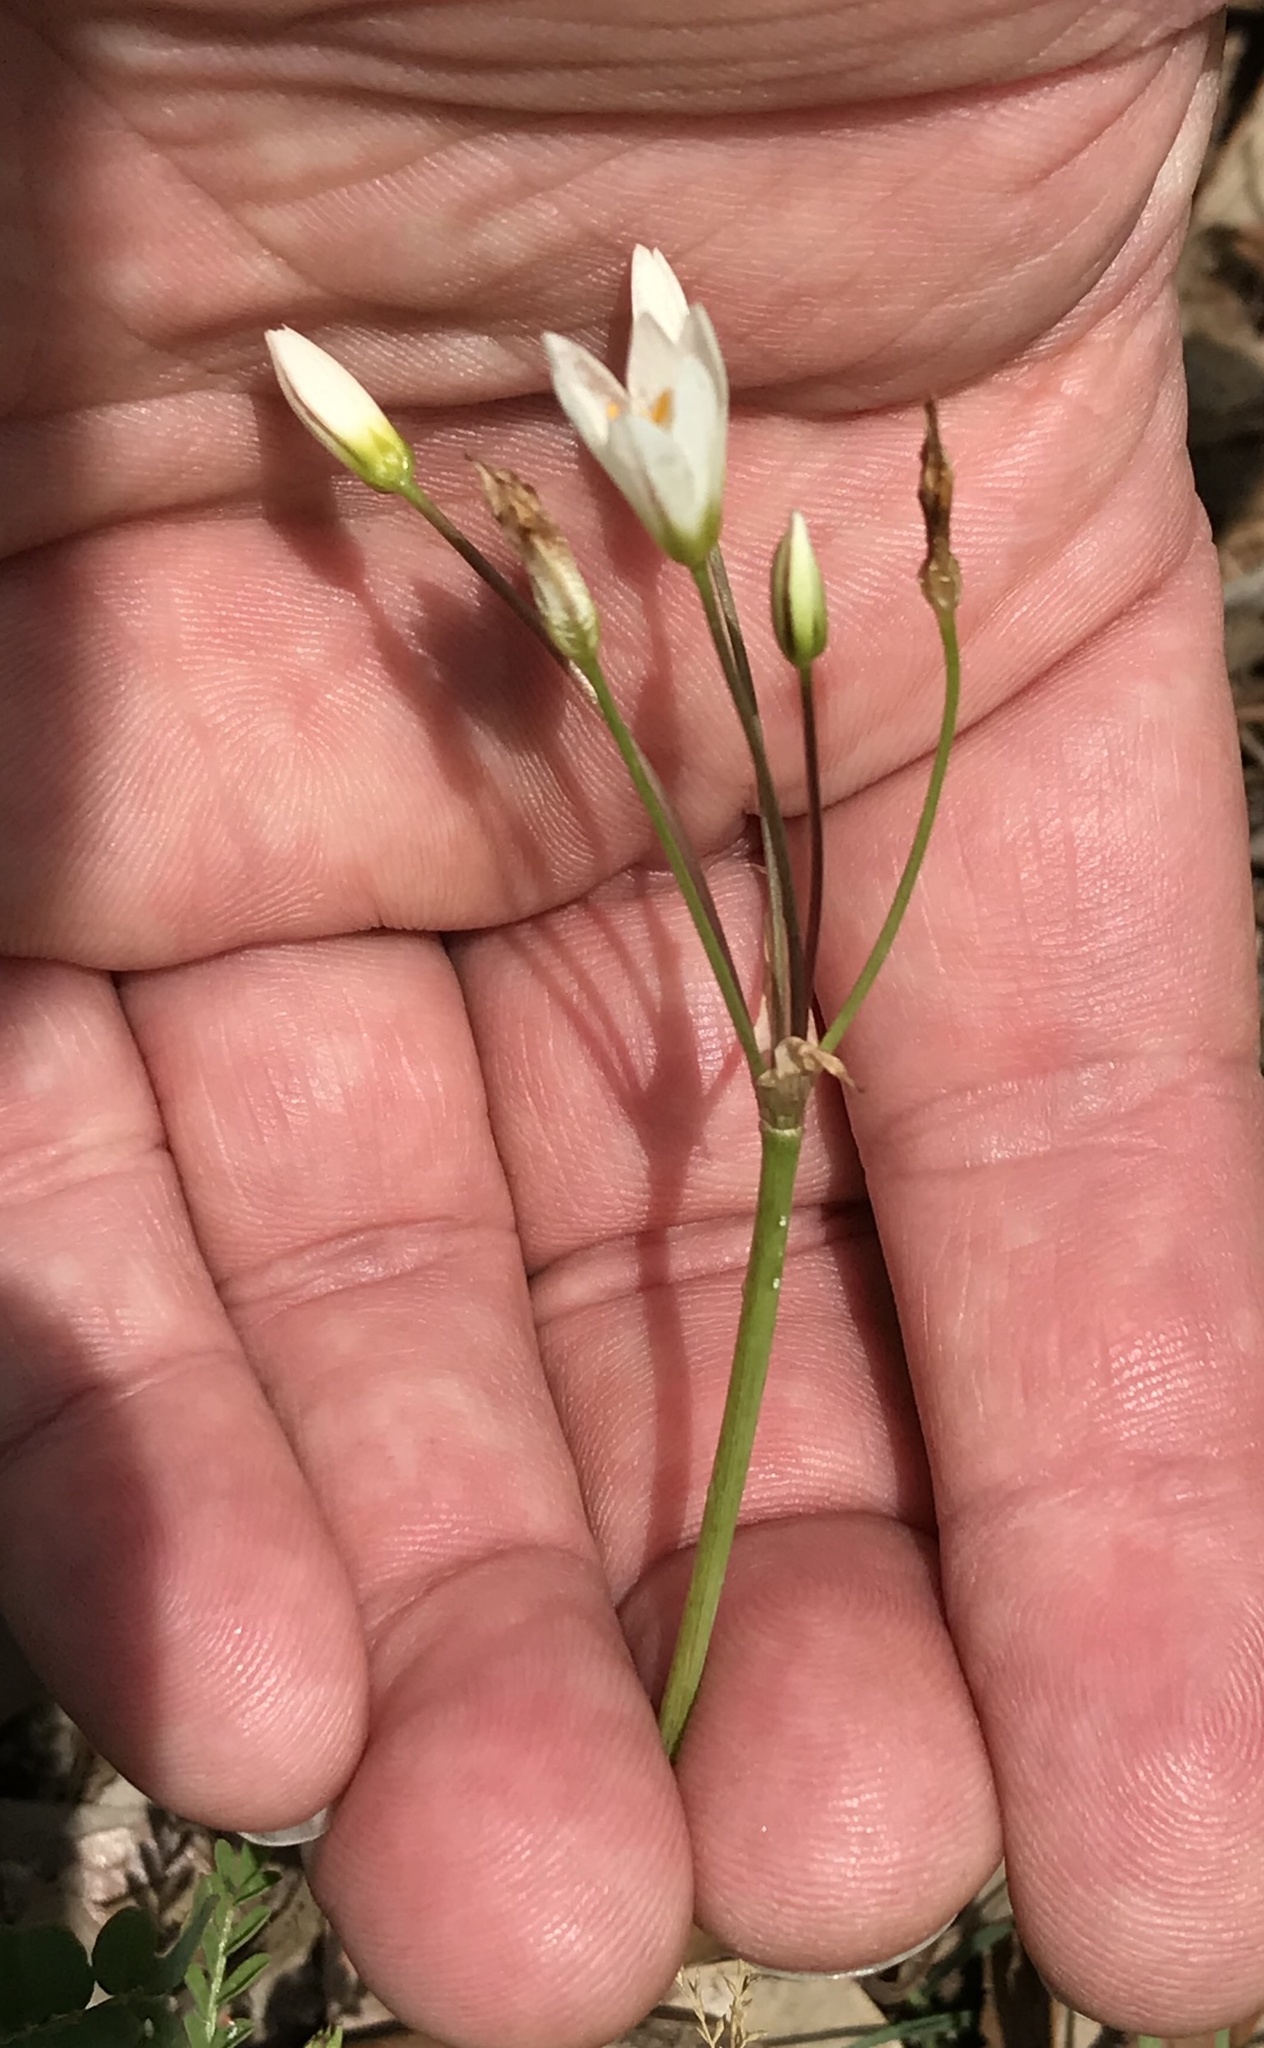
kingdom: Plantae
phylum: Tracheophyta
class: Liliopsida
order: Asparagales
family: Amaryllidaceae
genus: Nothoscordum
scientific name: Nothoscordum bivalve
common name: Crow-poison
